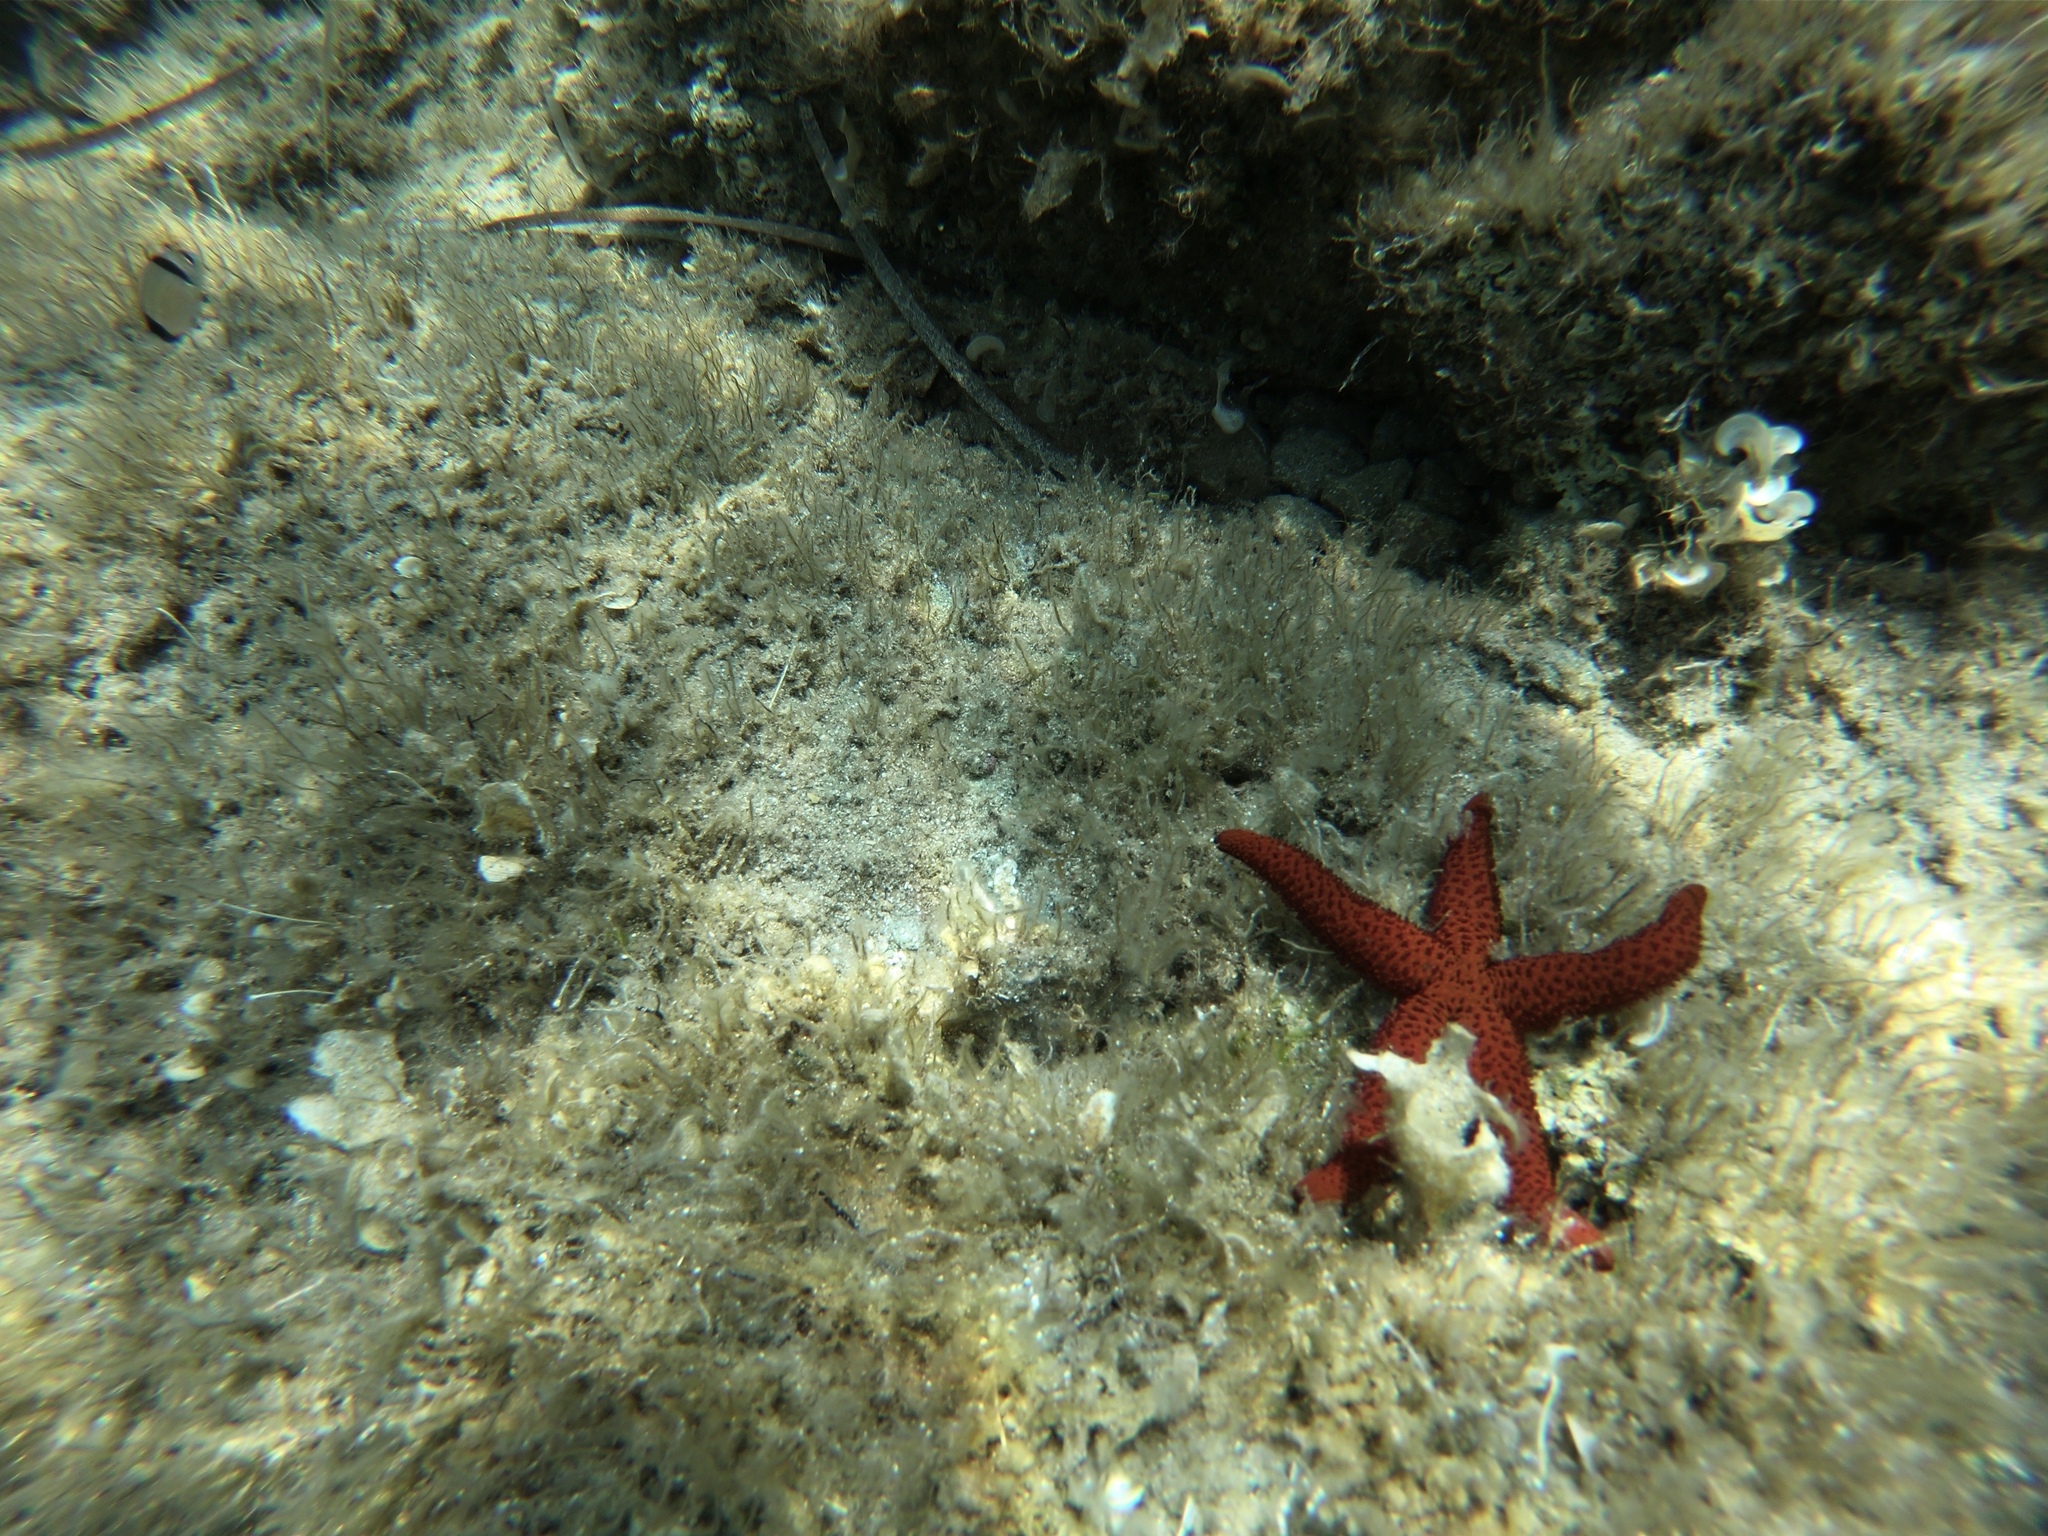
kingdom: Animalia
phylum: Echinodermata
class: Asteroidea
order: Spinulosida
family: Echinasteridae
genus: Echinaster
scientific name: Echinaster sepositus
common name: Red starfish
